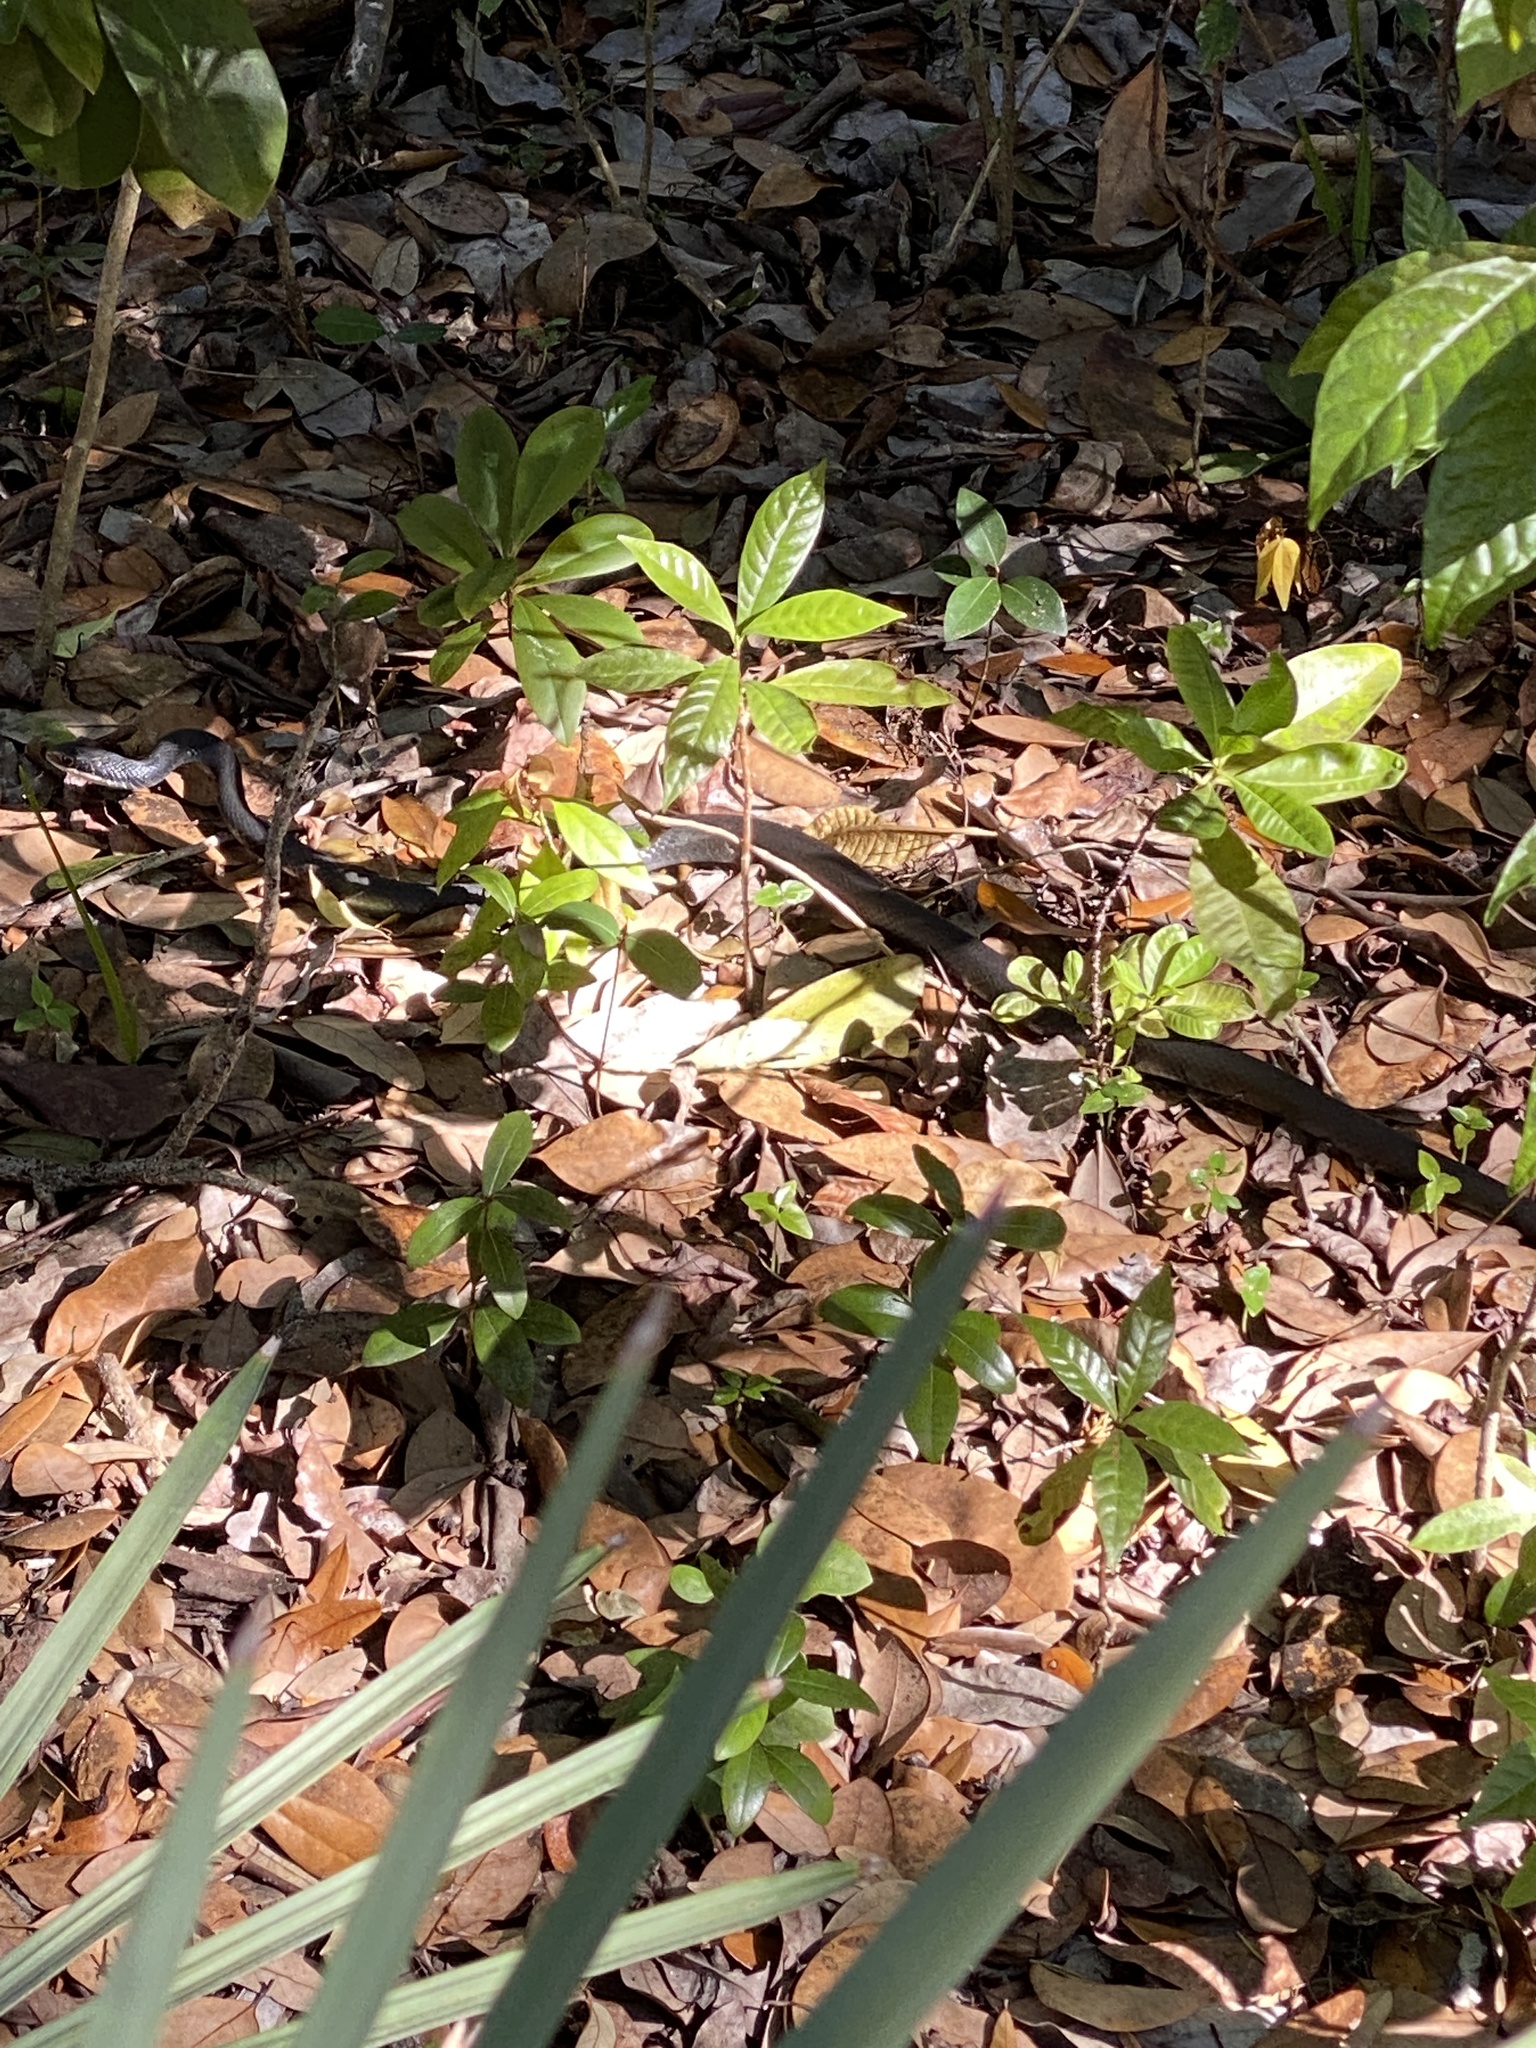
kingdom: Animalia
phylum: Chordata
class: Squamata
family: Colubridae
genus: Coluber
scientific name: Coluber constrictor
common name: Eastern racer
